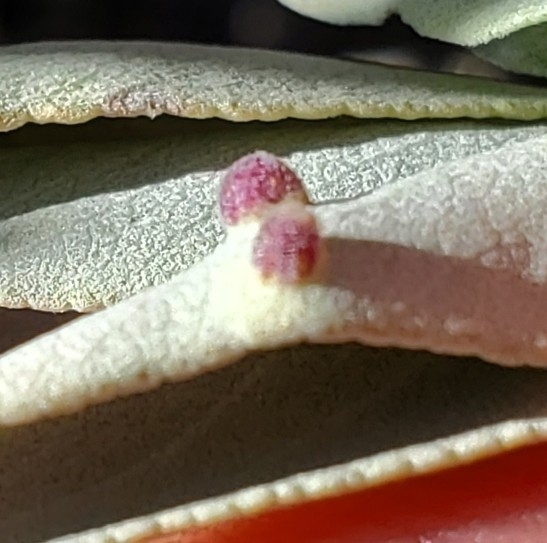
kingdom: Plantae
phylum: Tracheophyta
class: Magnoliopsida
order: Lamiales
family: Lamiaceae
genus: Salvia
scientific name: Salvia apiana
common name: White sage
